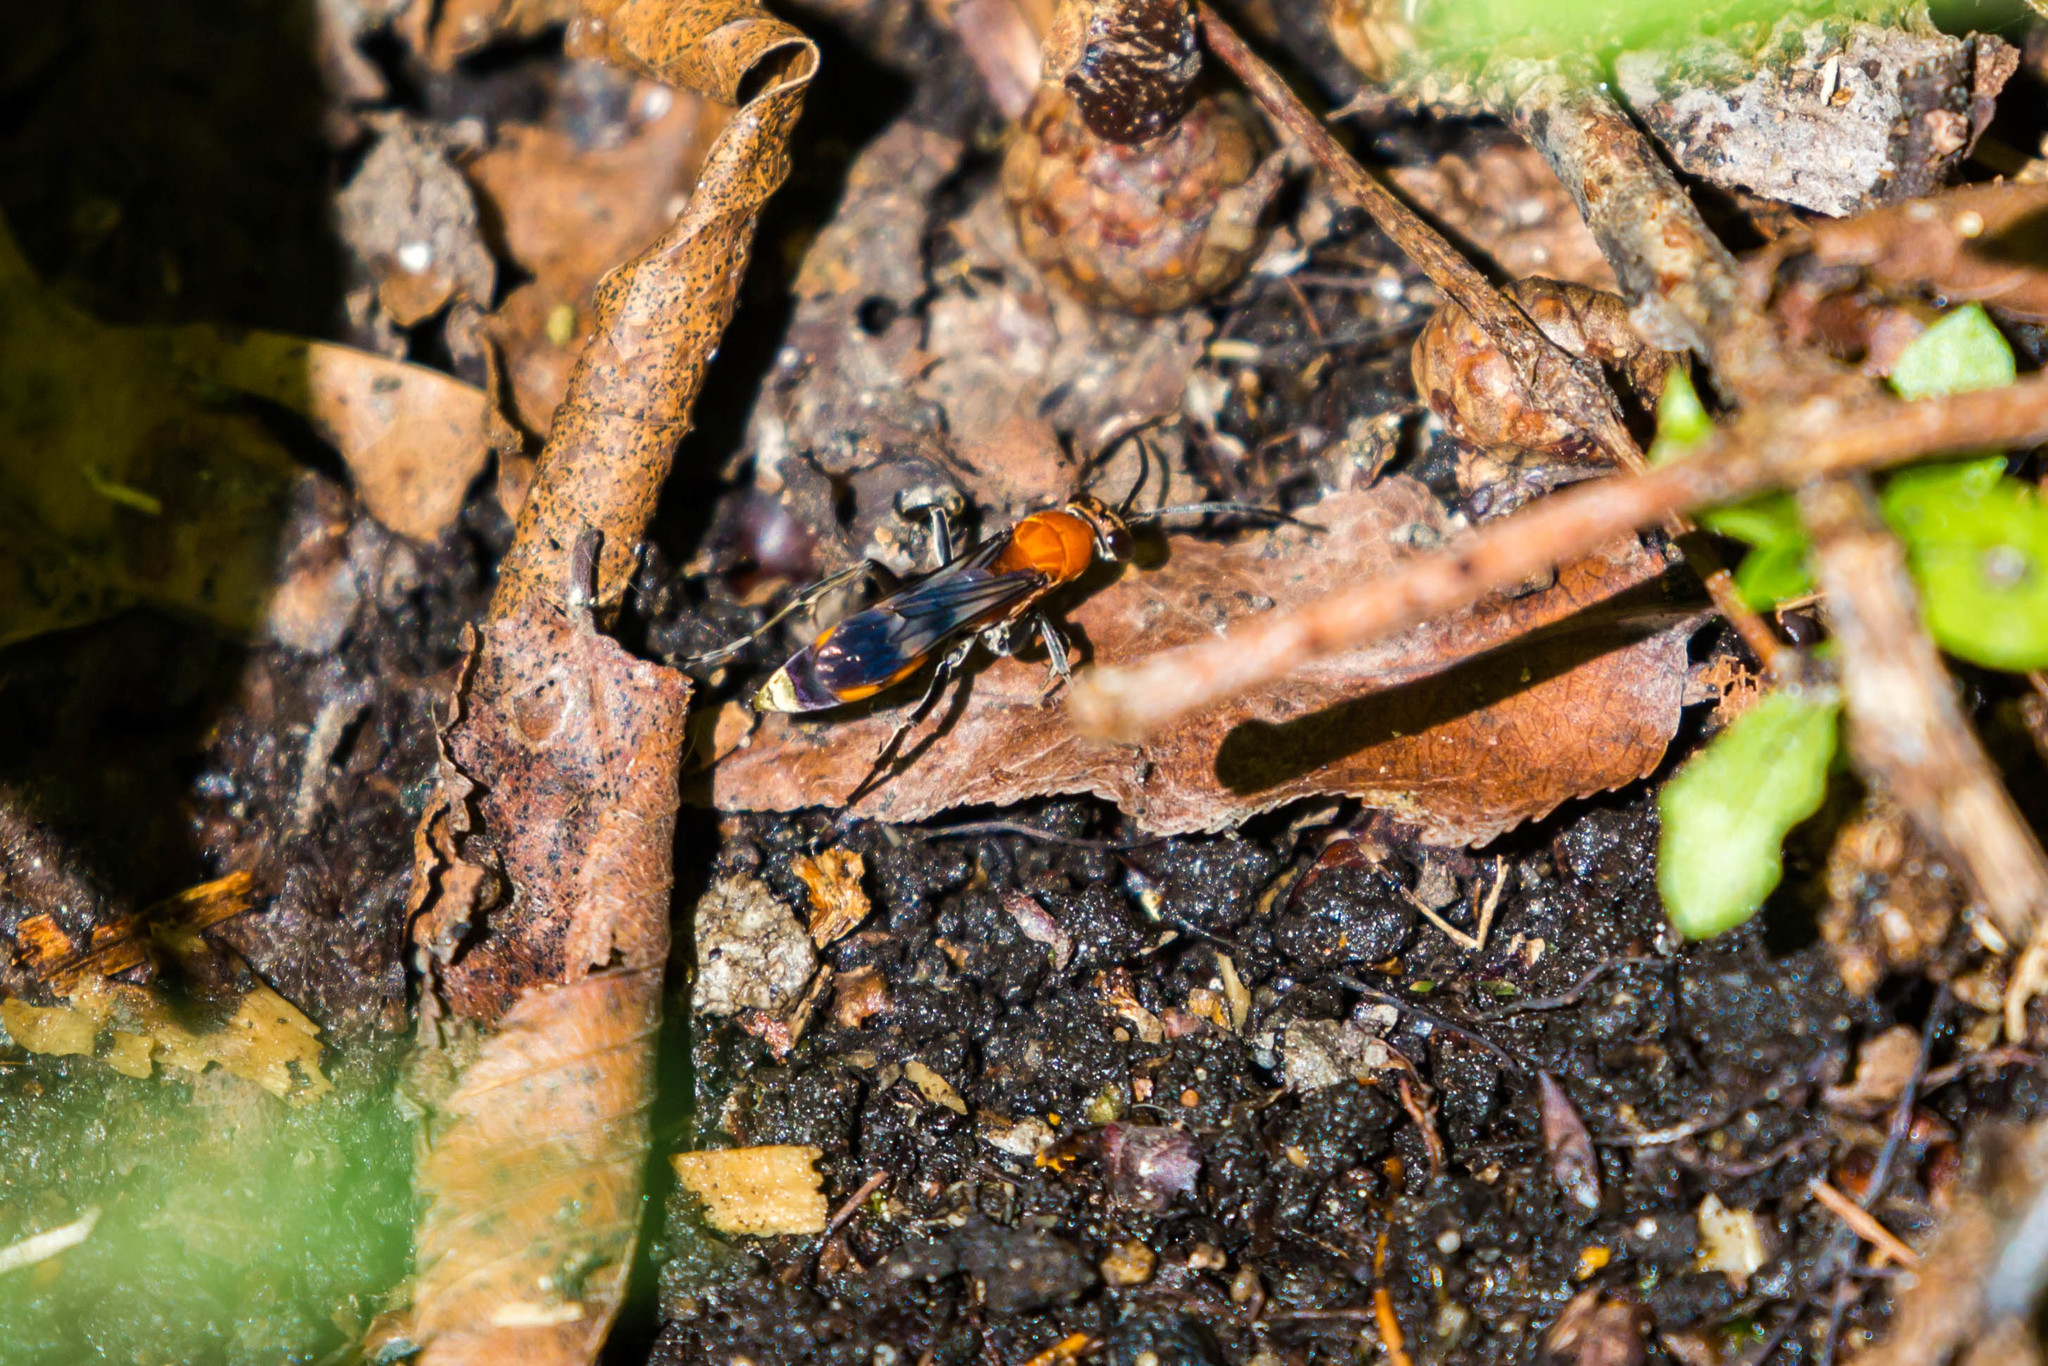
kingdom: Animalia
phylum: Arthropoda
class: Insecta
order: Hymenoptera
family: Pompilidae
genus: Psorthaspis
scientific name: Psorthaspis mariae
